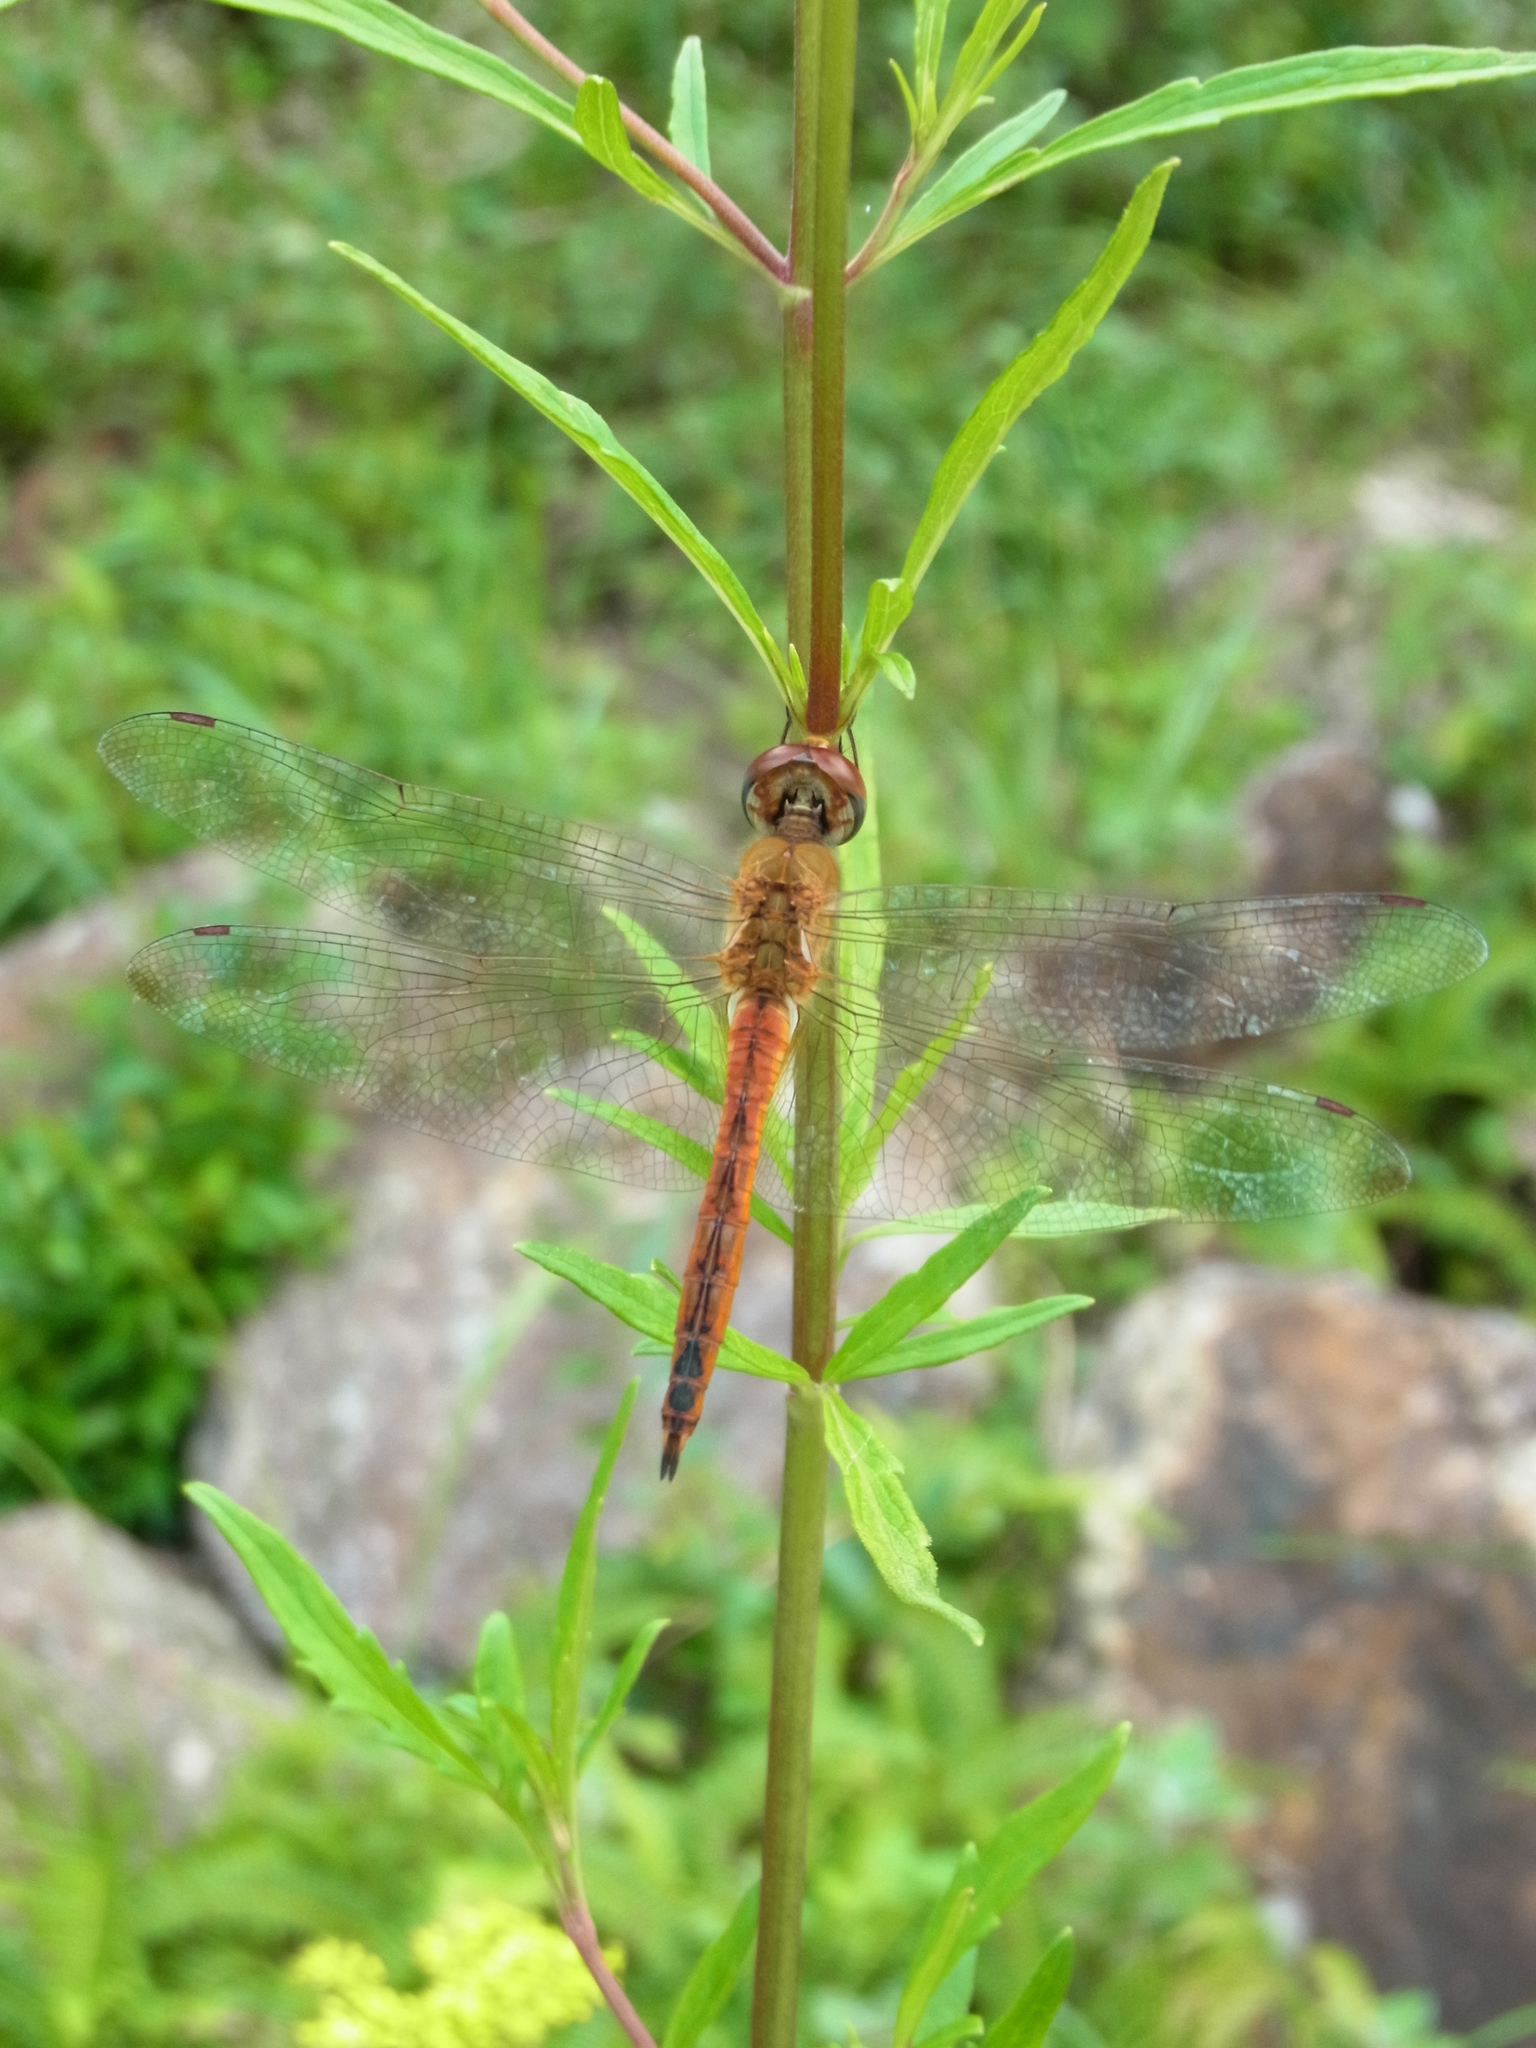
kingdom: Animalia
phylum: Arthropoda
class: Insecta
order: Odonata
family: Libellulidae
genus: Pantala
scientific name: Pantala flavescens
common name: Wandering glider
